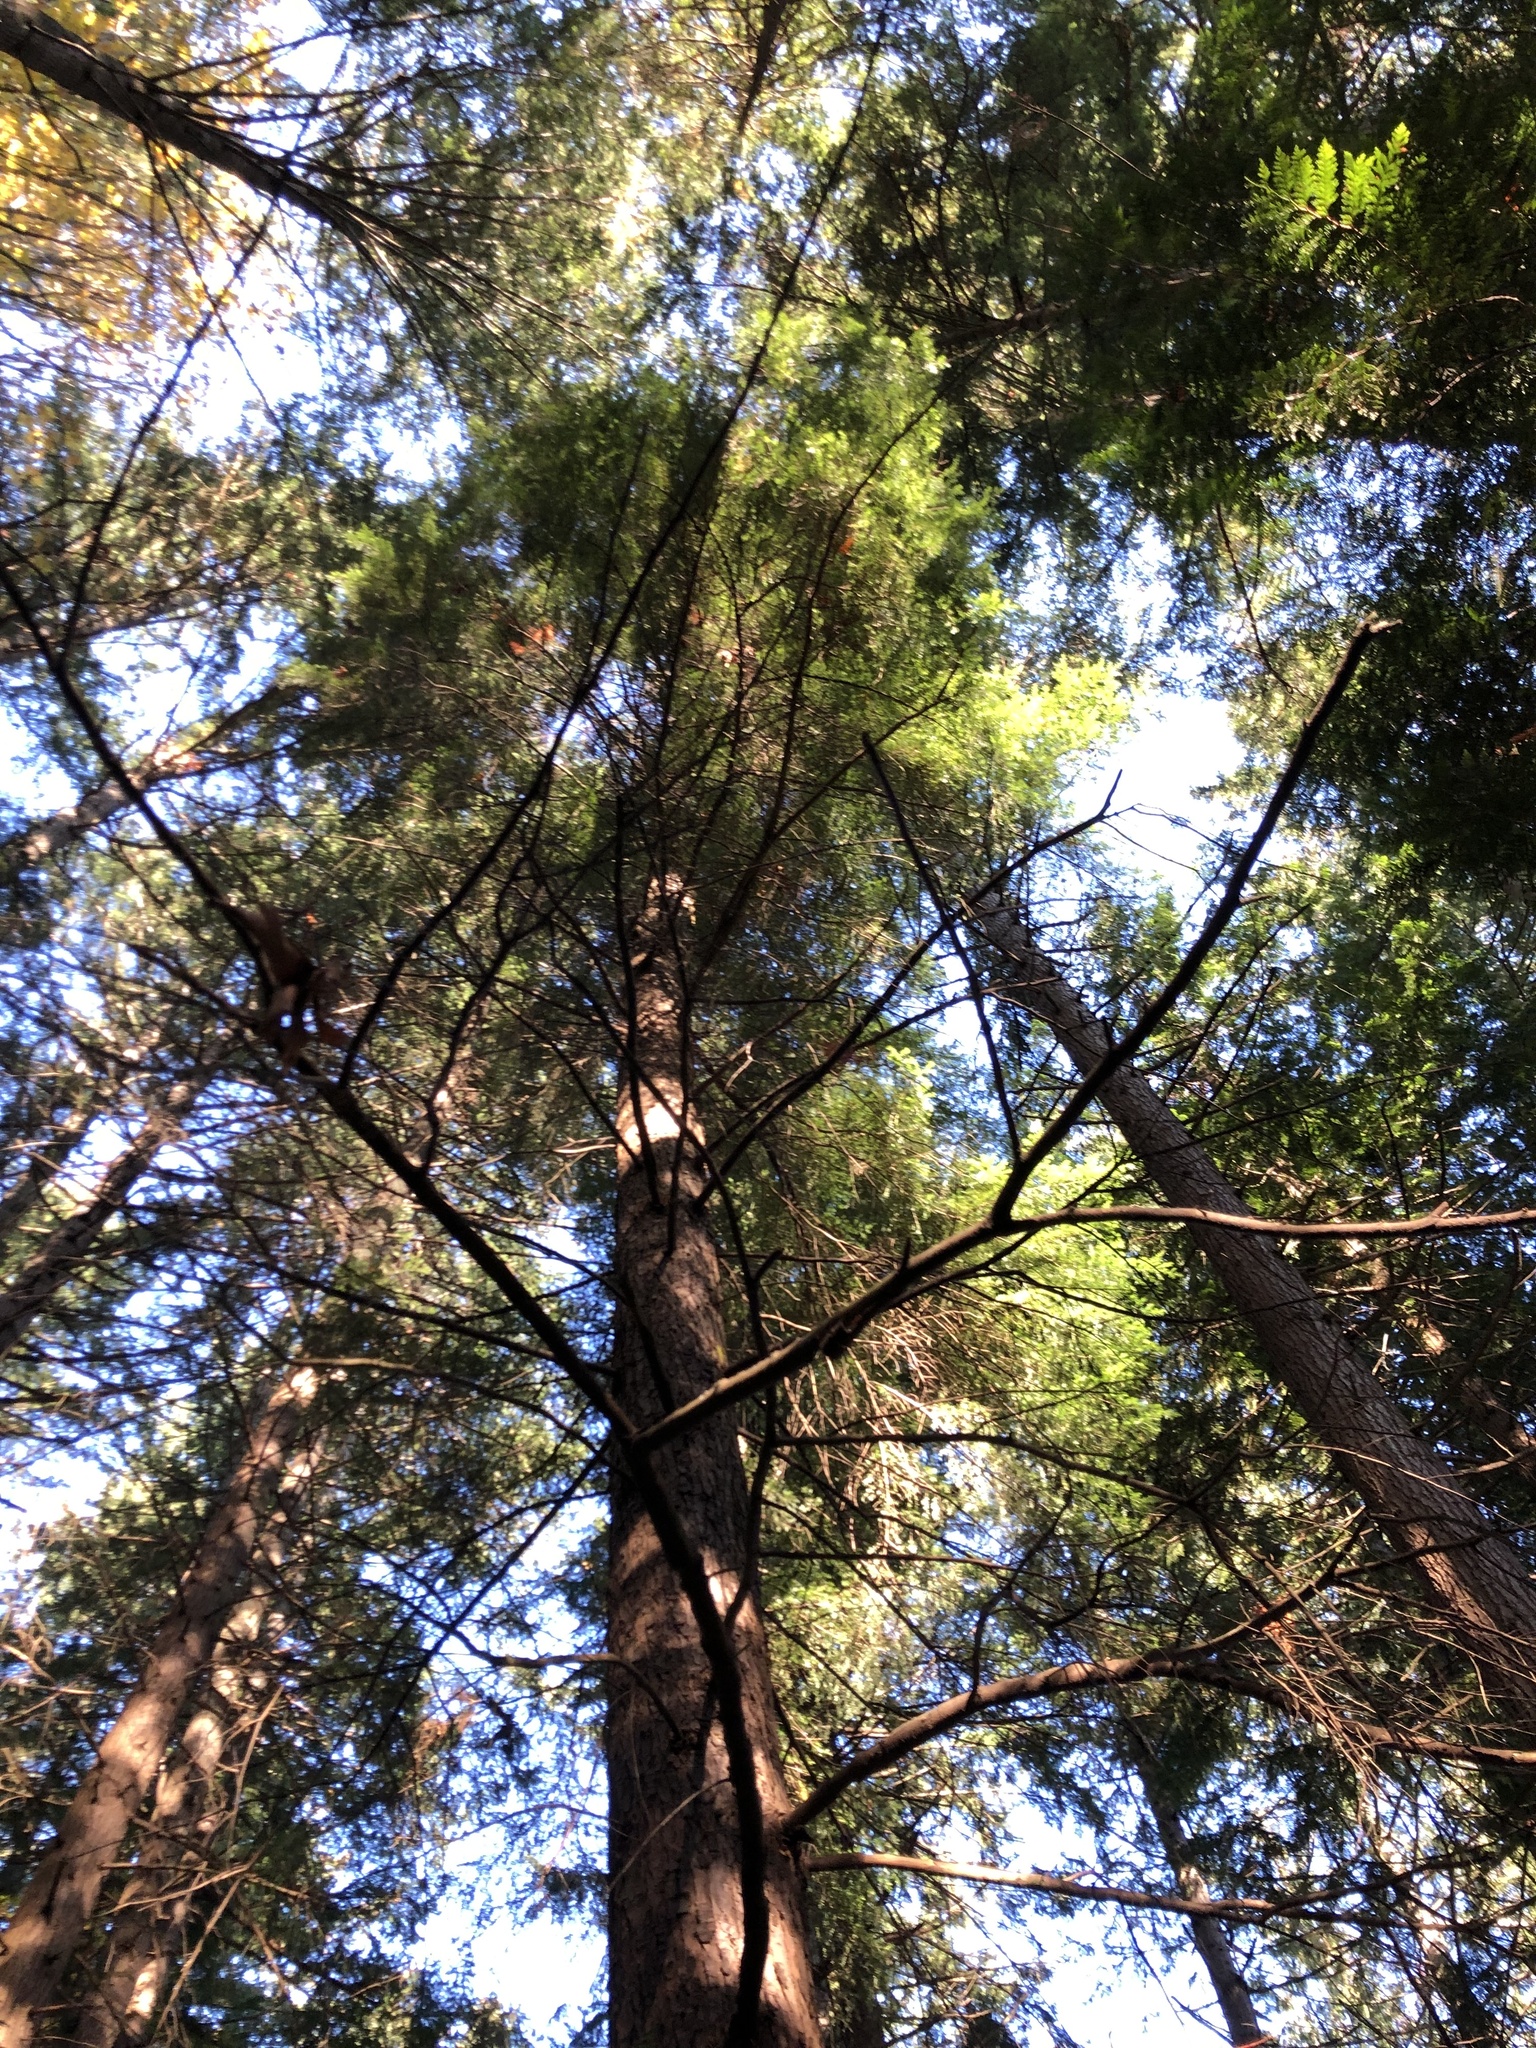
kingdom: Plantae
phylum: Tracheophyta
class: Pinopsida
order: Pinales
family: Pinaceae
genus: Tsuga
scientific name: Tsuga heterophylla
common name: Western hemlock
